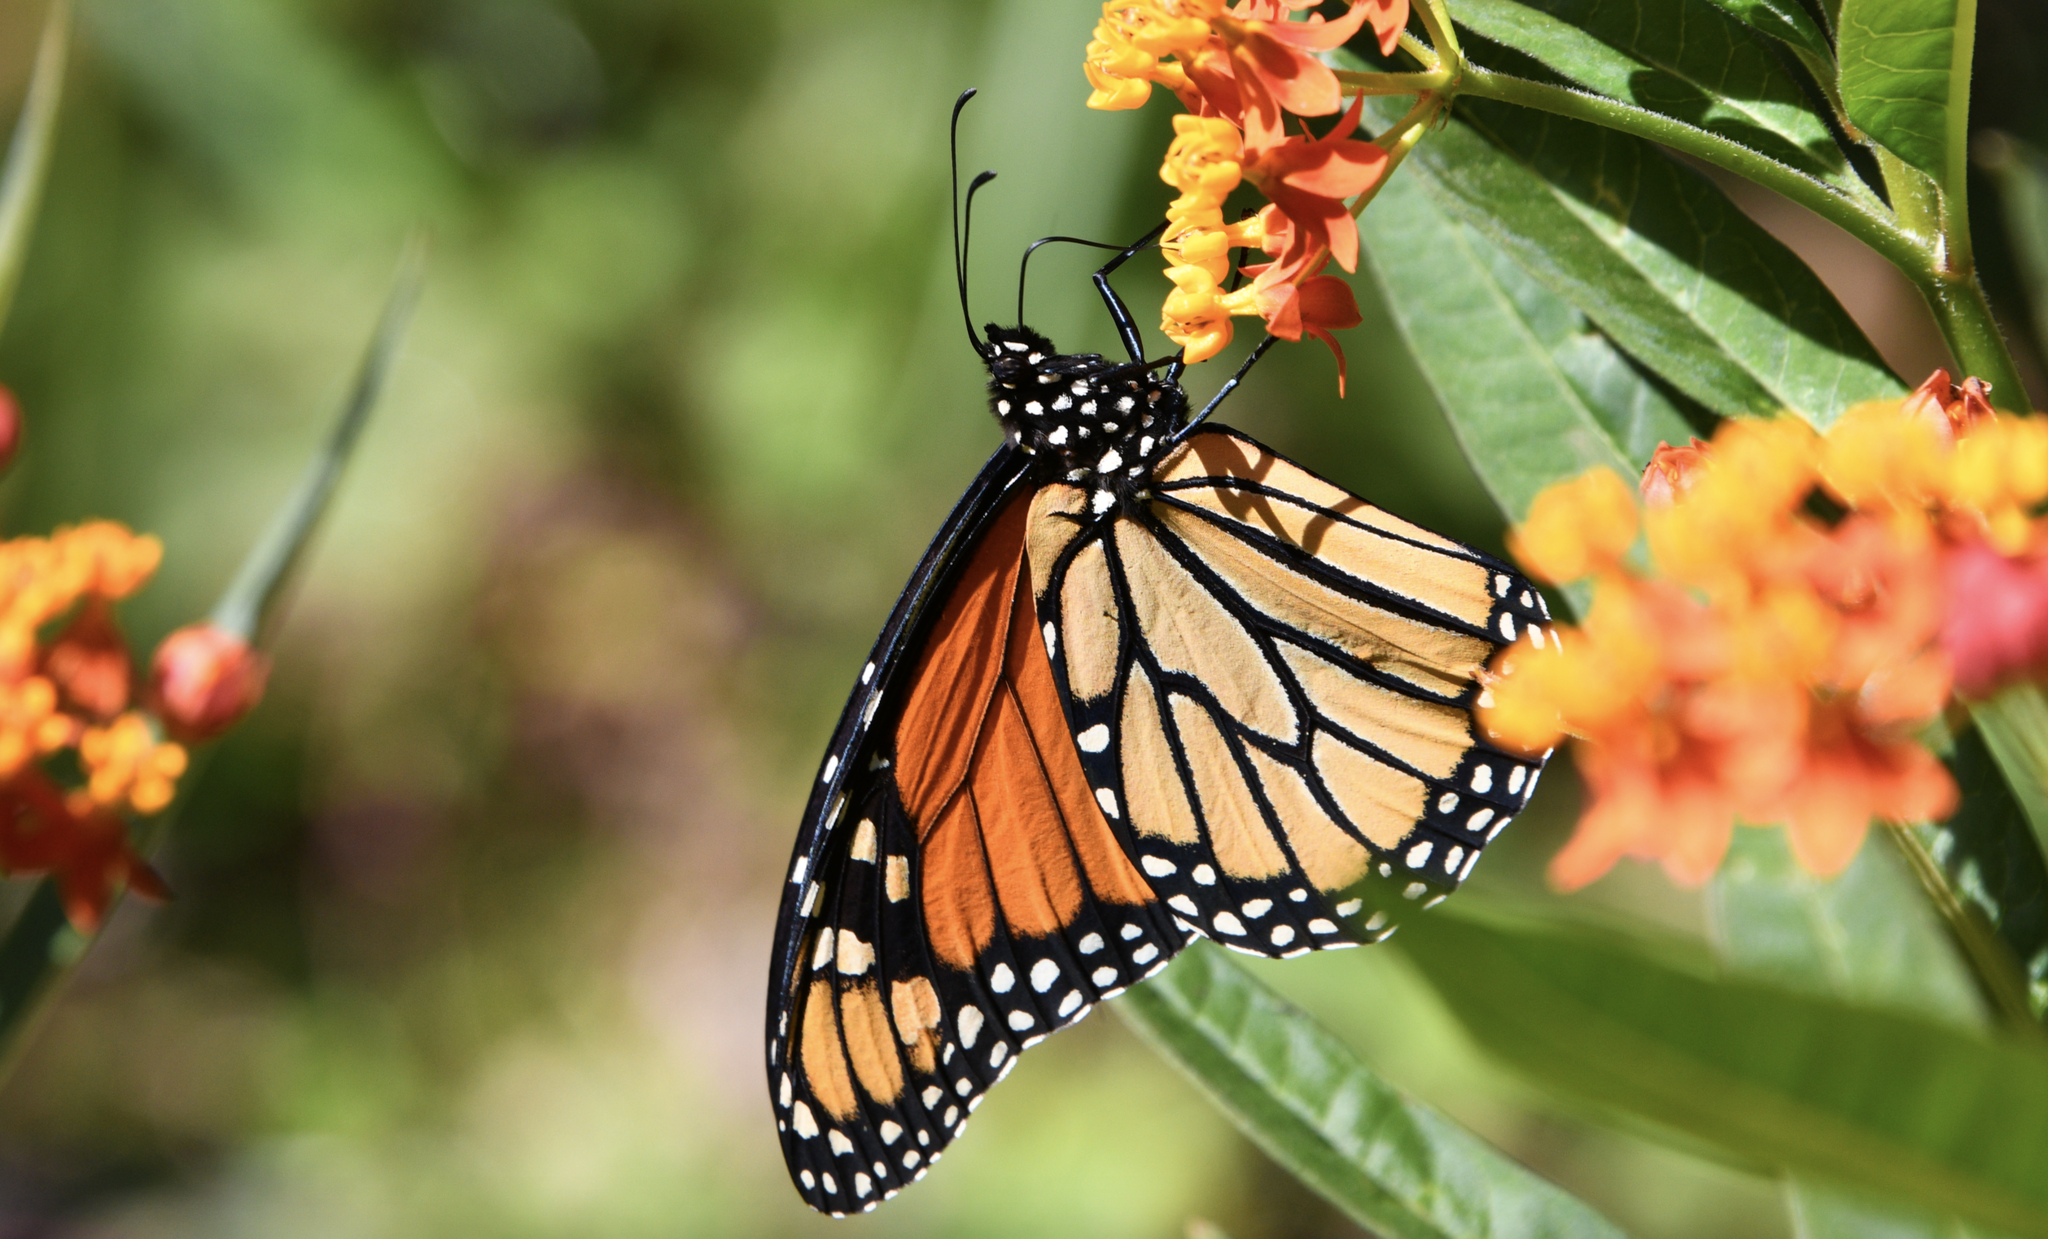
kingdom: Animalia
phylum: Arthropoda
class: Insecta
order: Lepidoptera
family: Nymphalidae
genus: Danaus
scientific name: Danaus plexippus
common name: Monarch
